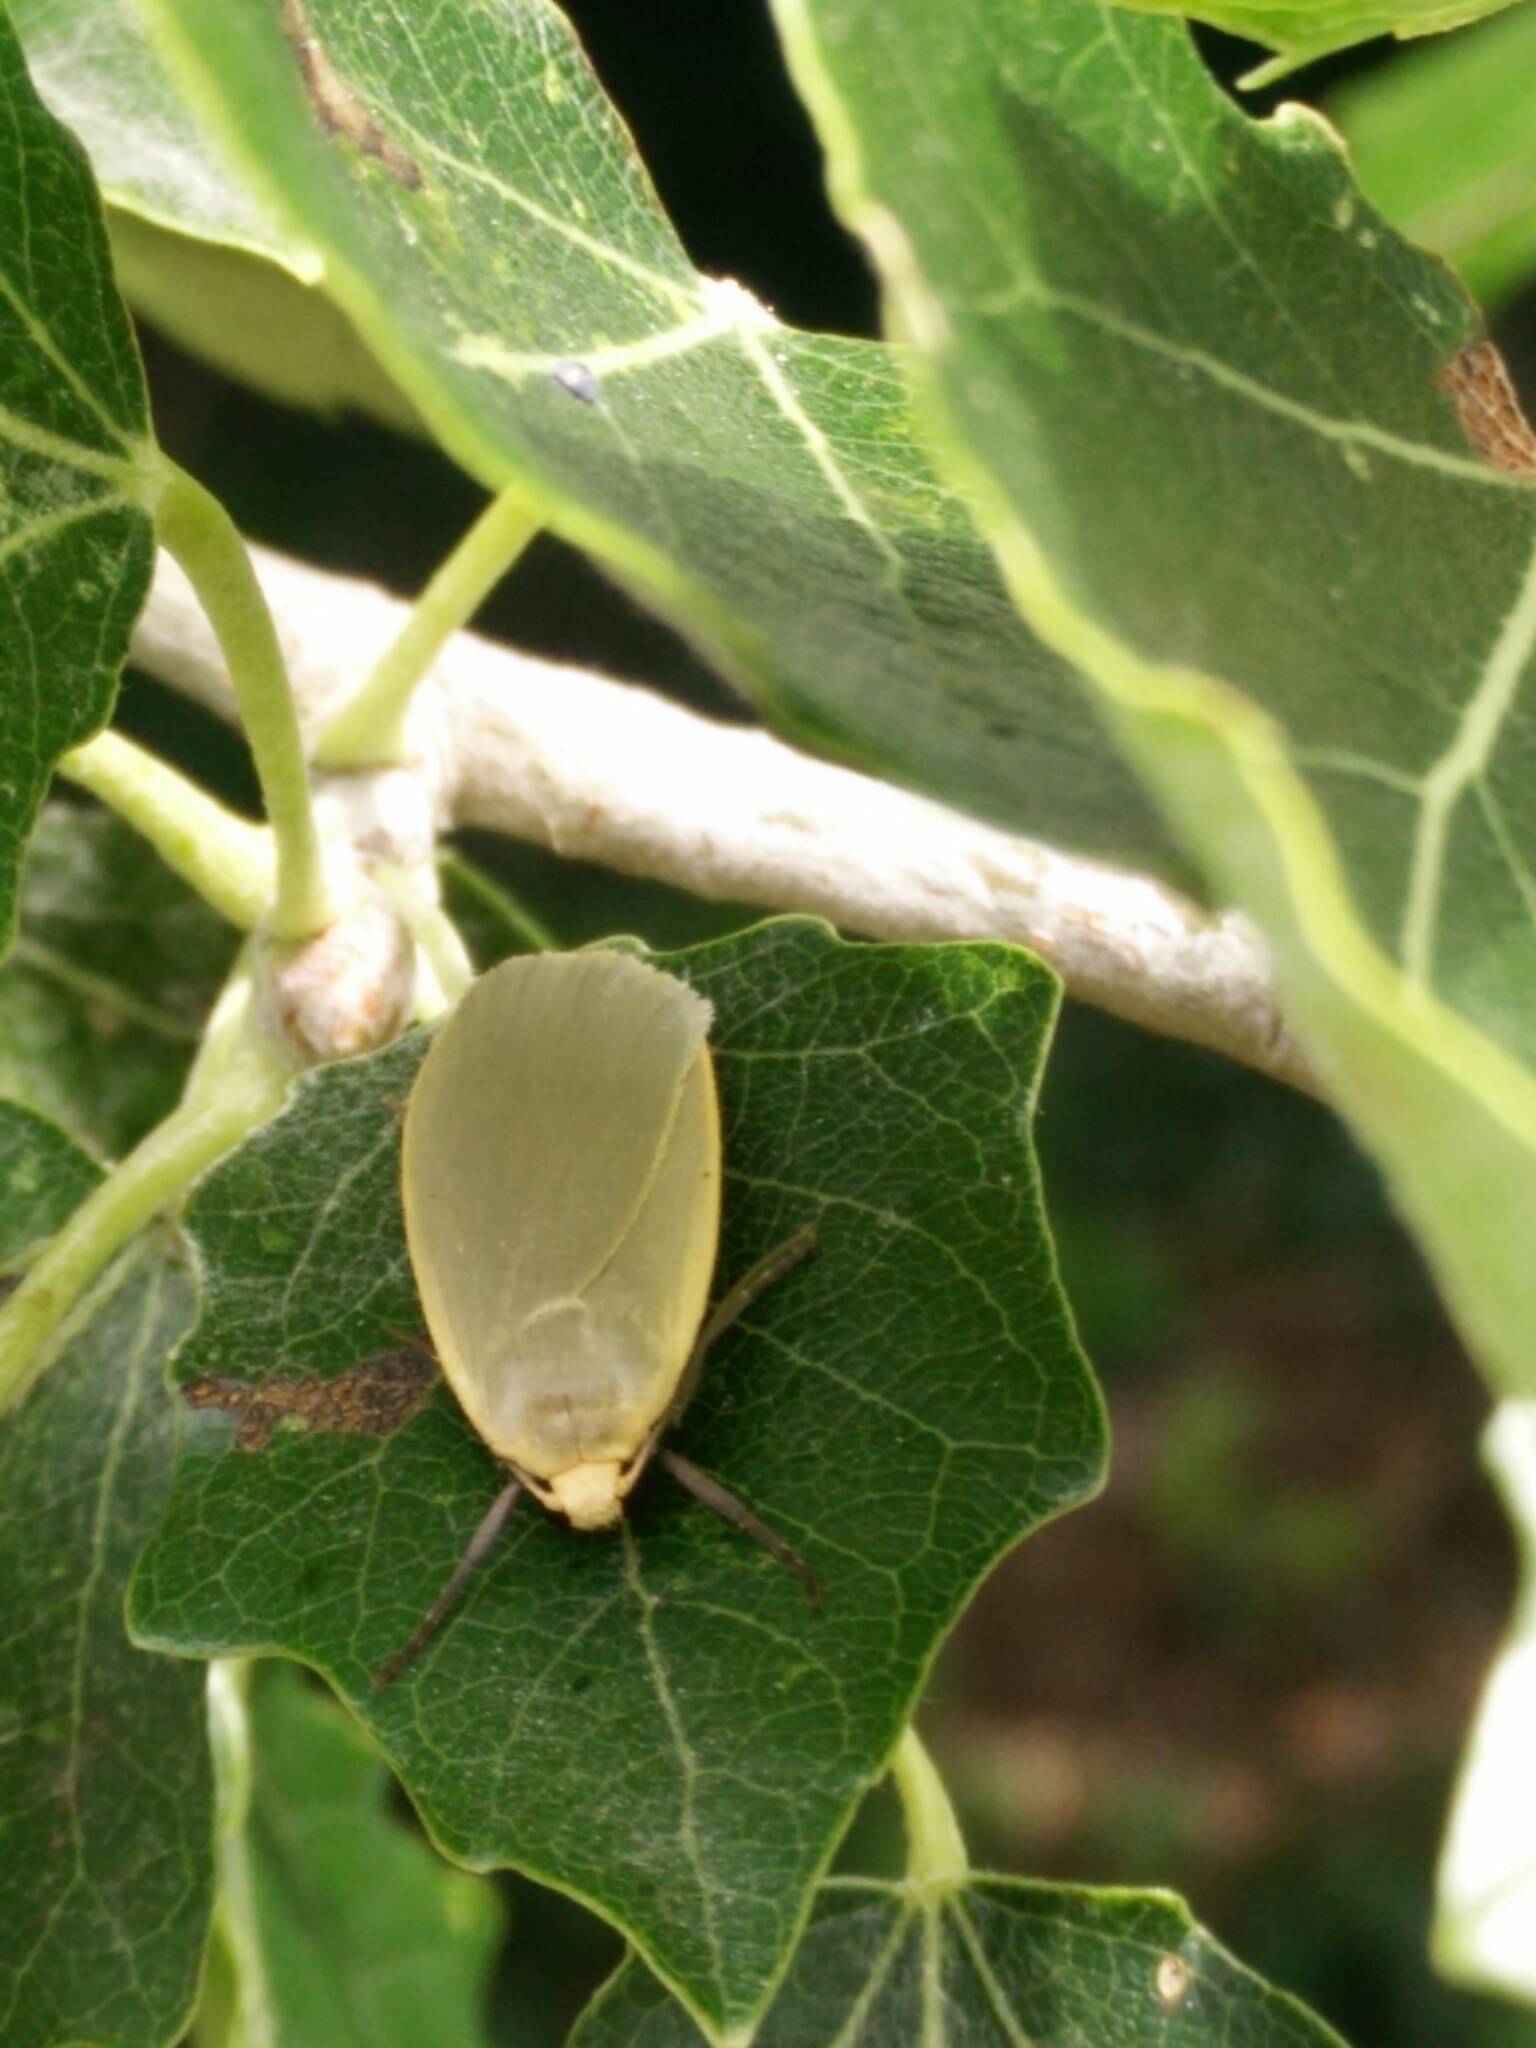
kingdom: Animalia
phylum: Arthropoda
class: Insecta
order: Lepidoptera
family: Erebidae
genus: Collita
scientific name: Collita griseola
